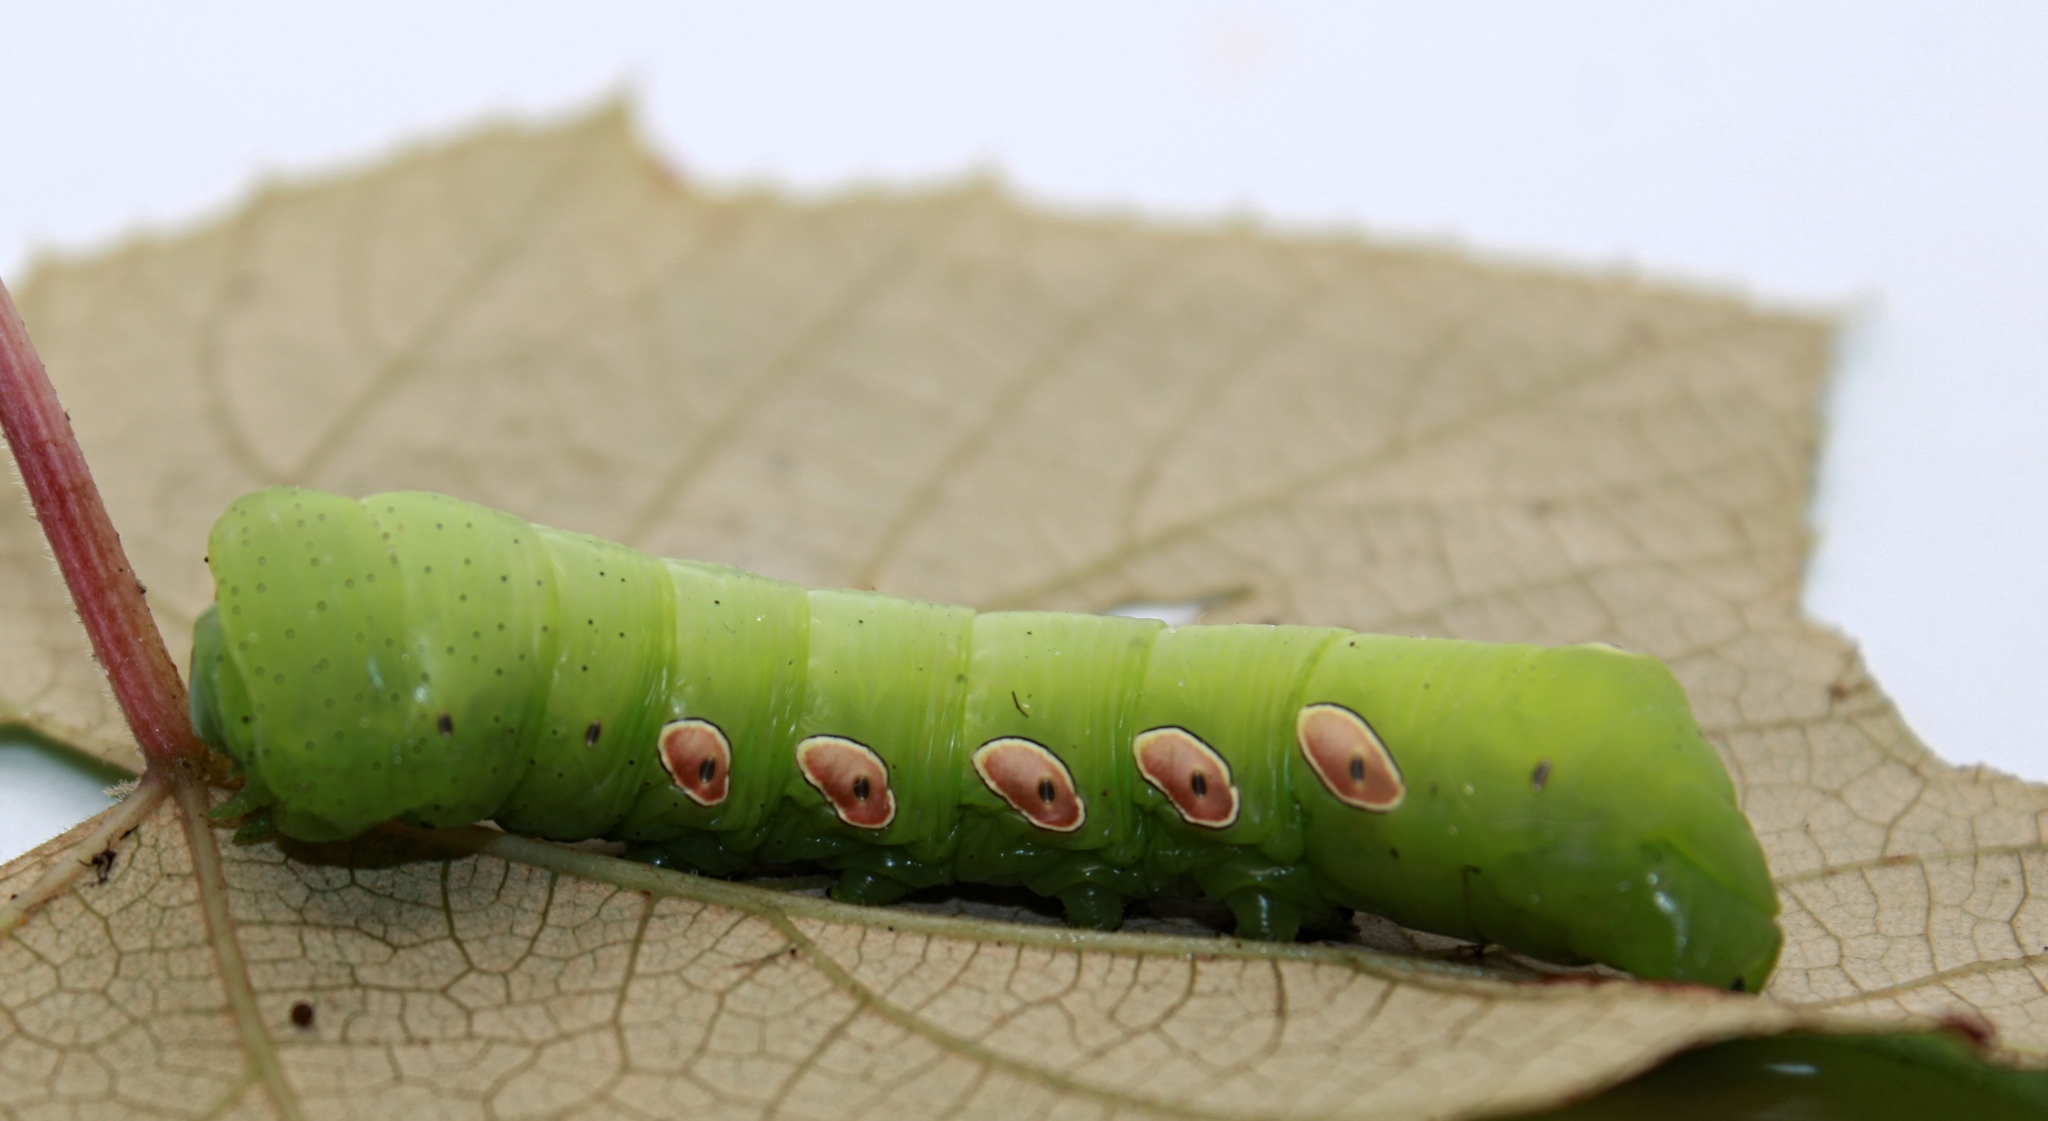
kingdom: Animalia
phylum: Arthropoda
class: Insecta
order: Lepidoptera
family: Sphingidae
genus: Eumorpha
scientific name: Eumorpha pandorus
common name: Pandora sphinx
